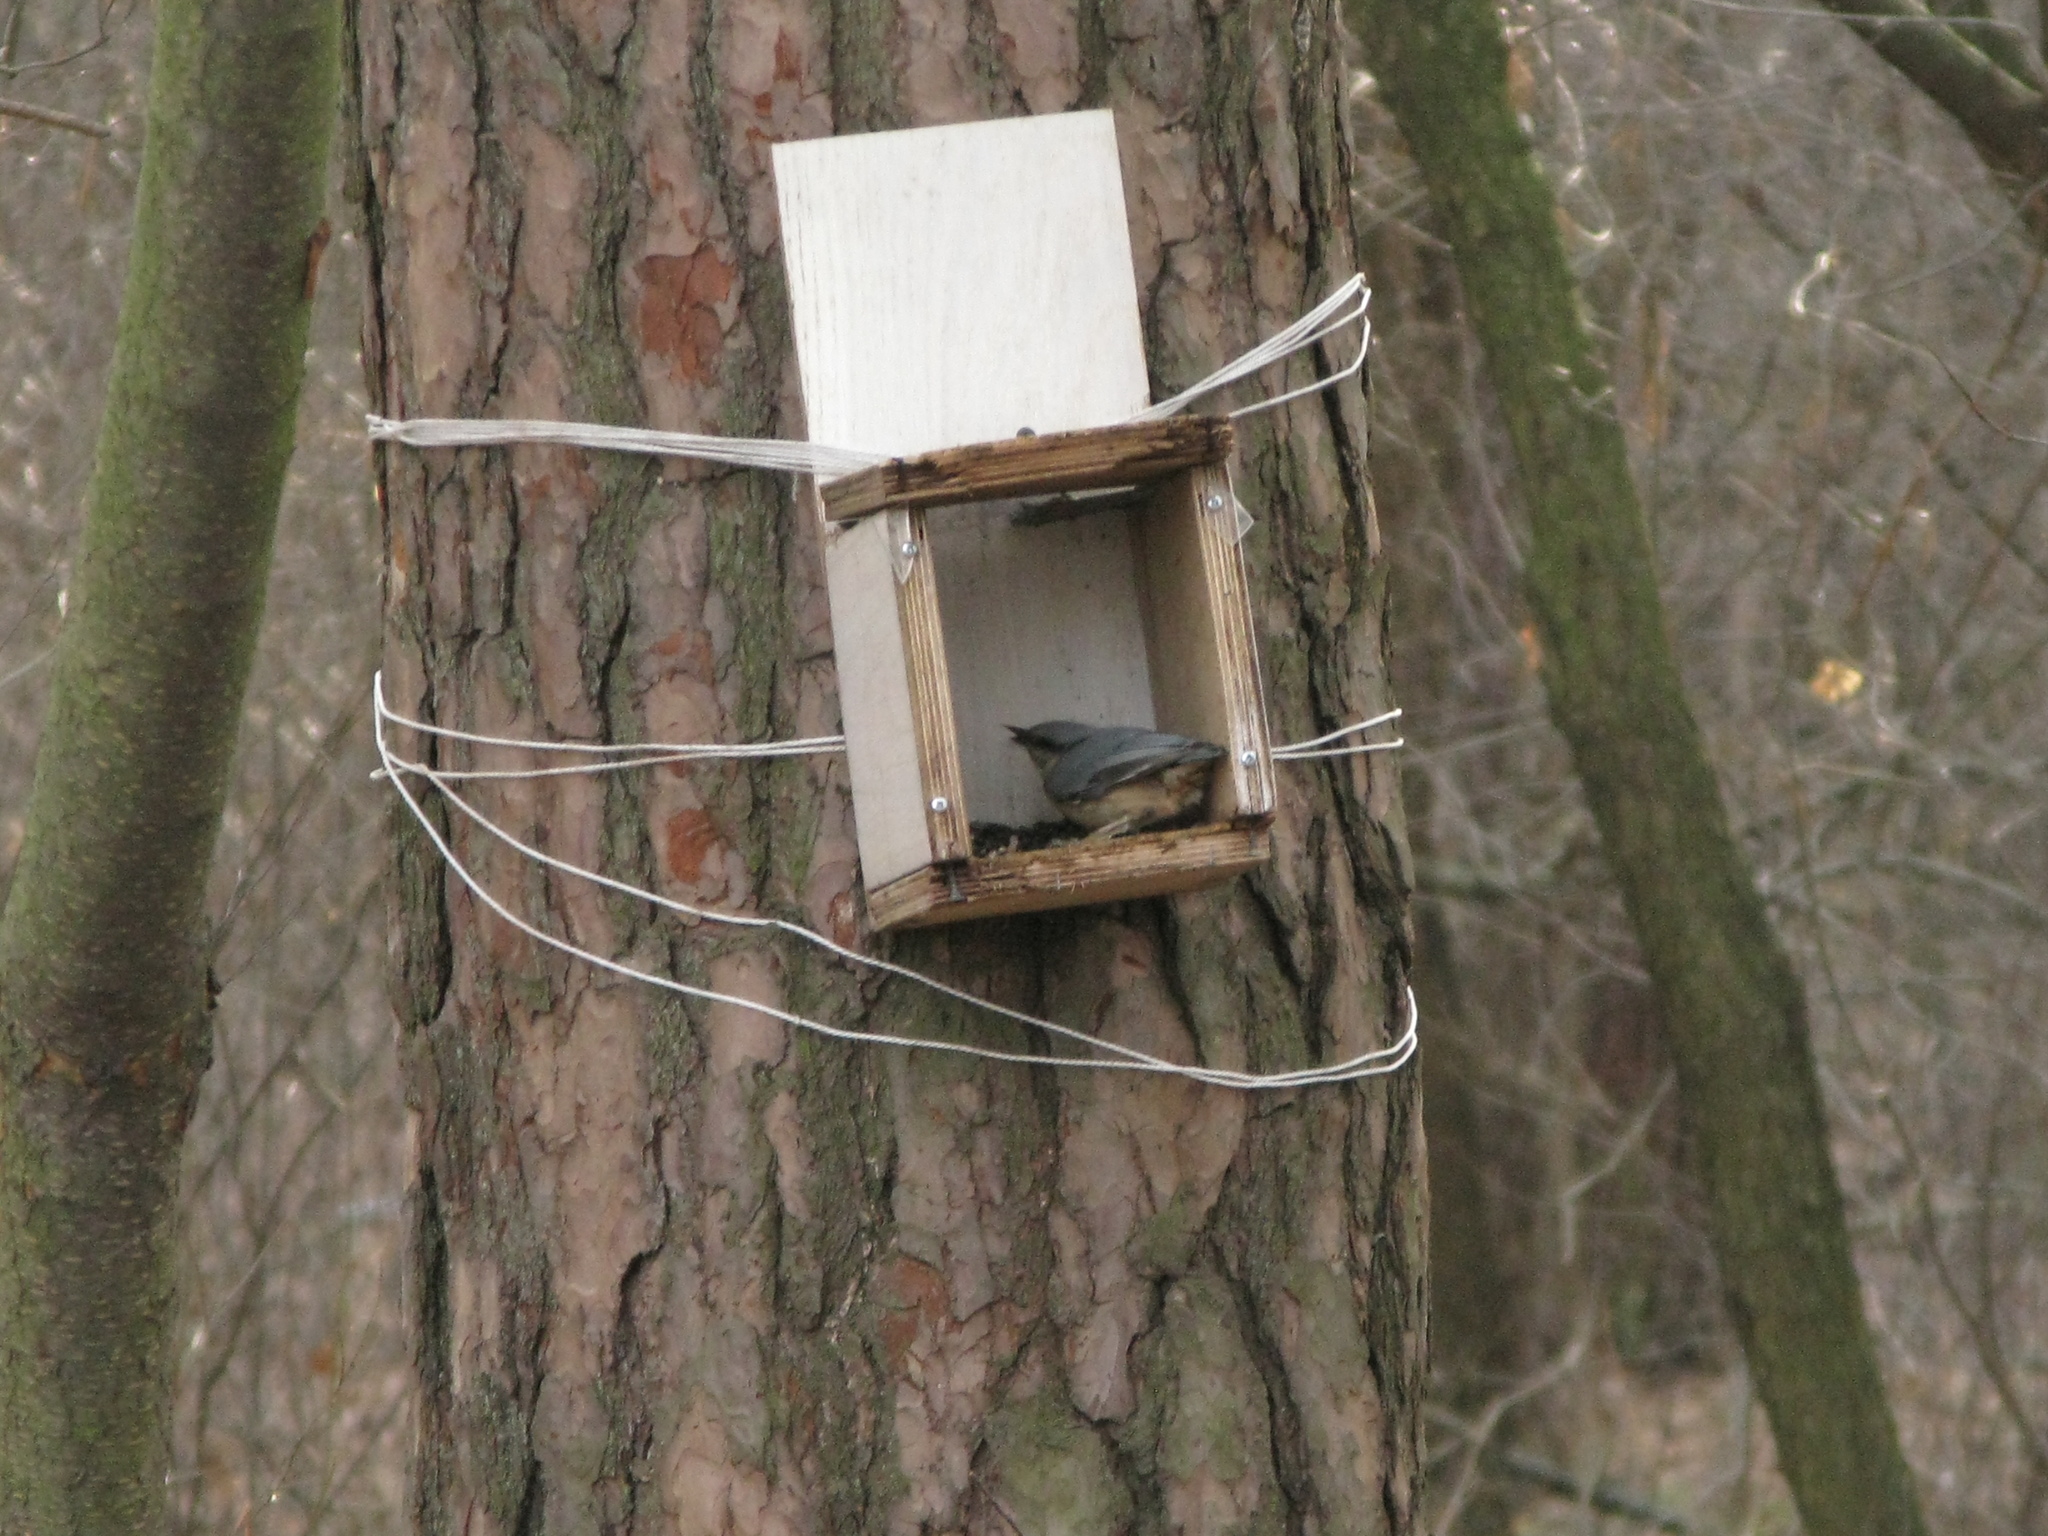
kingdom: Animalia
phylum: Chordata
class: Aves
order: Passeriformes
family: Sittidae
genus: Sitta
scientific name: Sitta europaea
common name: Eurasian nuthatch
